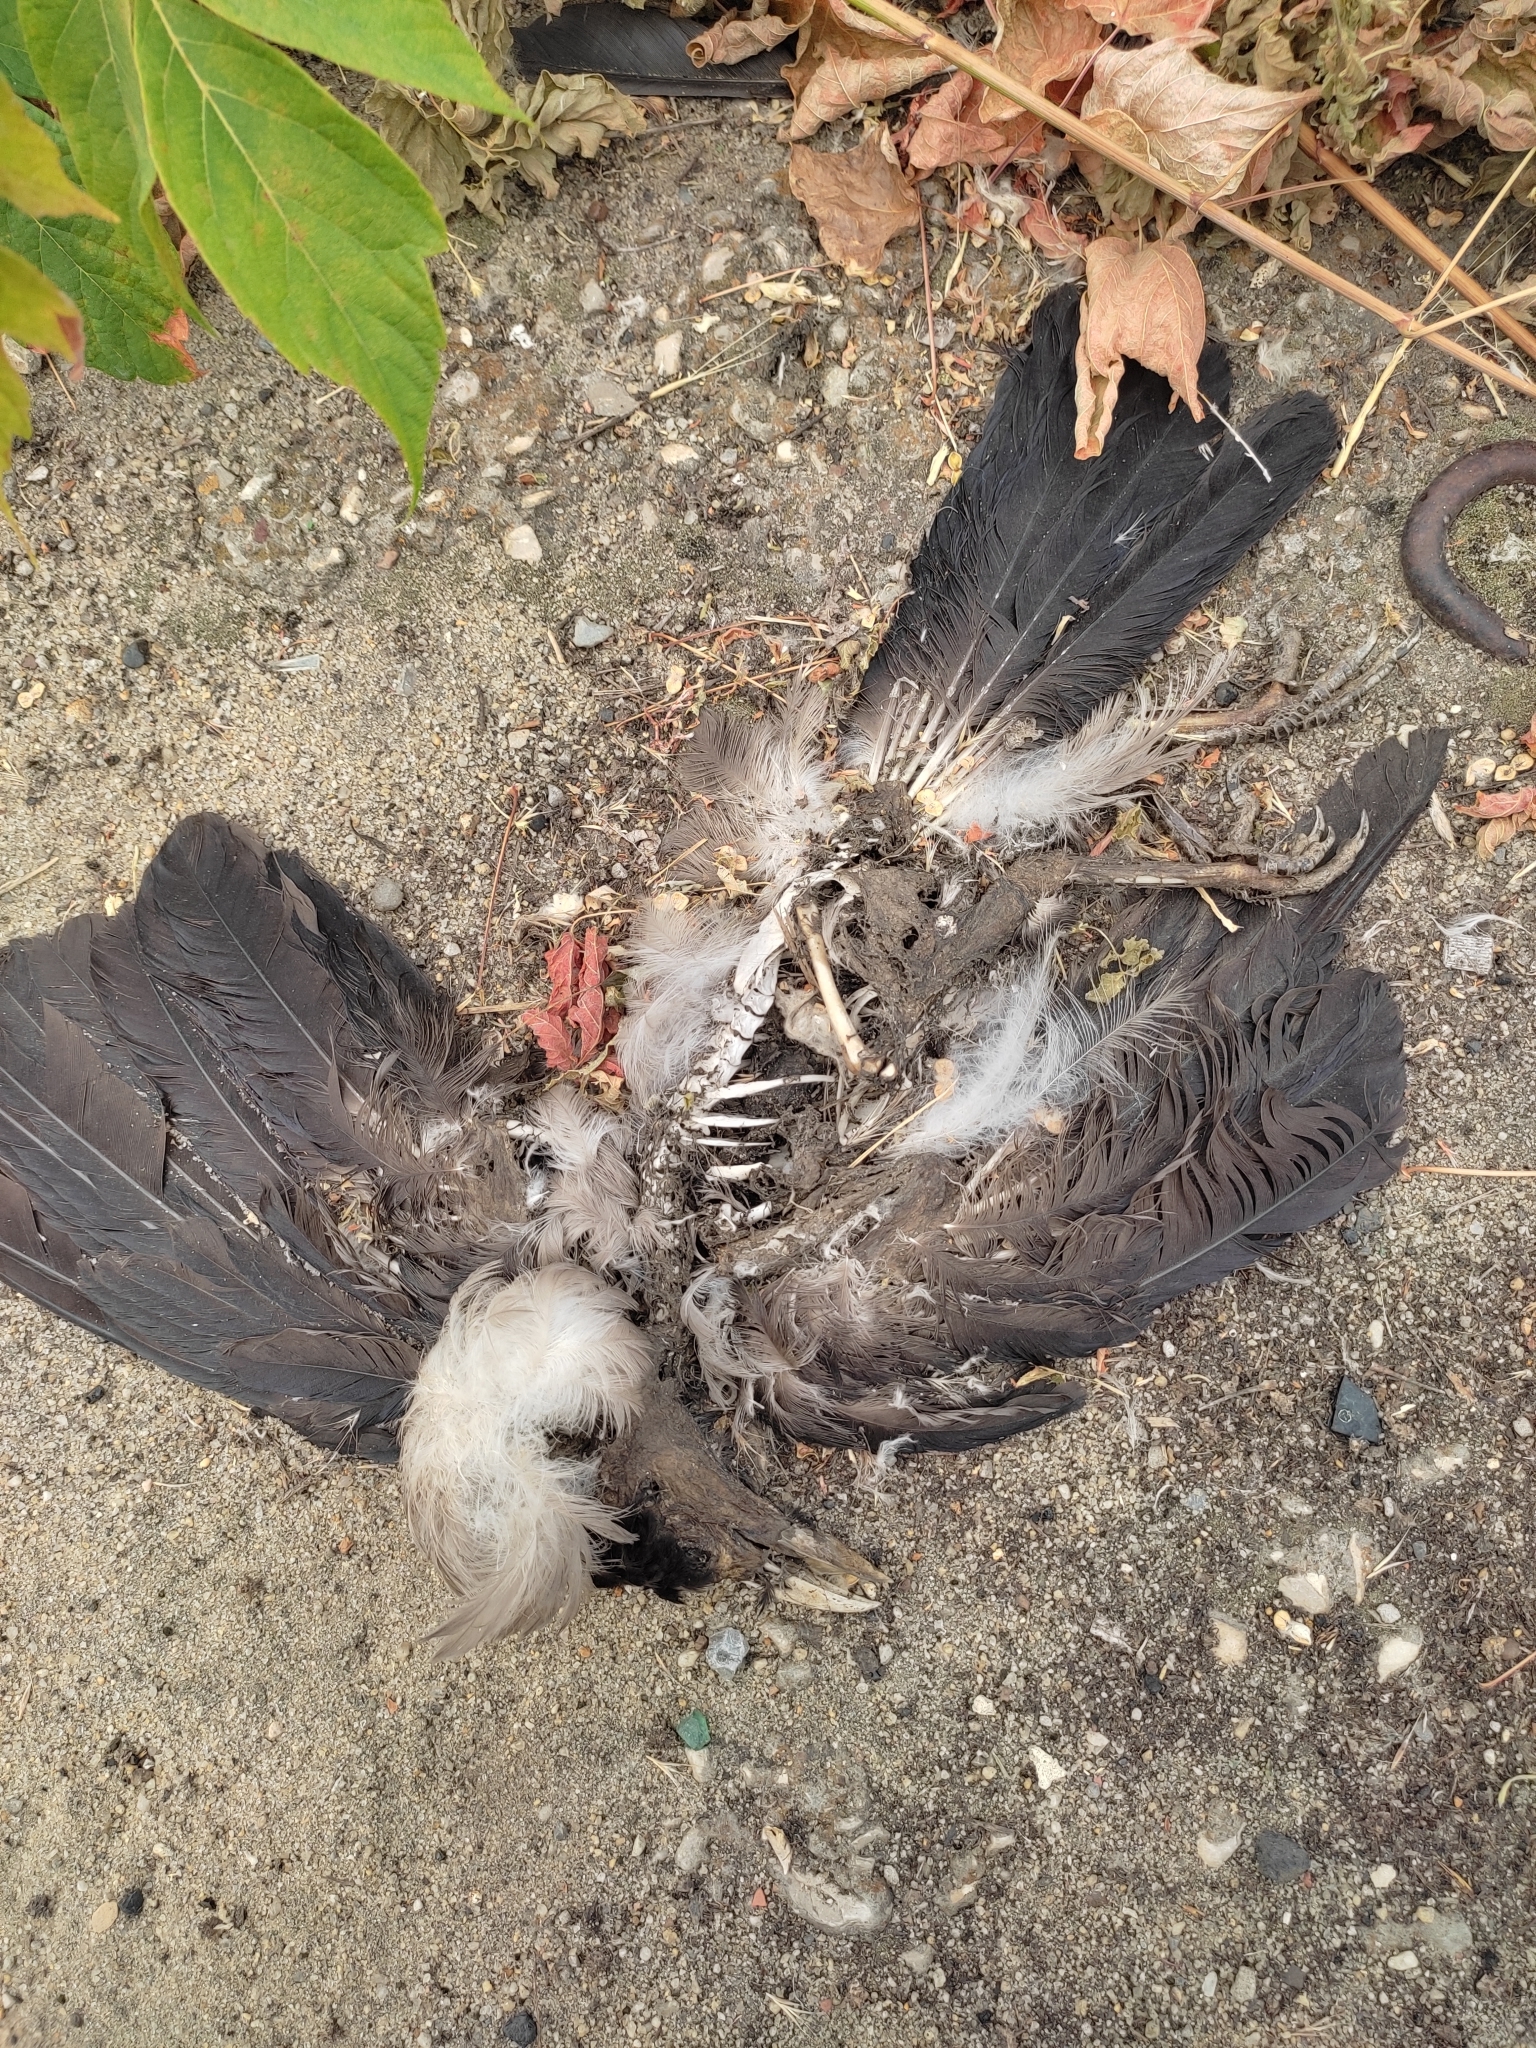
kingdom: Animalia
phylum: Chordata
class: Aves
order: Passeriformes
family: Corvidae
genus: Corvus
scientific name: Corvus cornix
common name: Hooded crow
